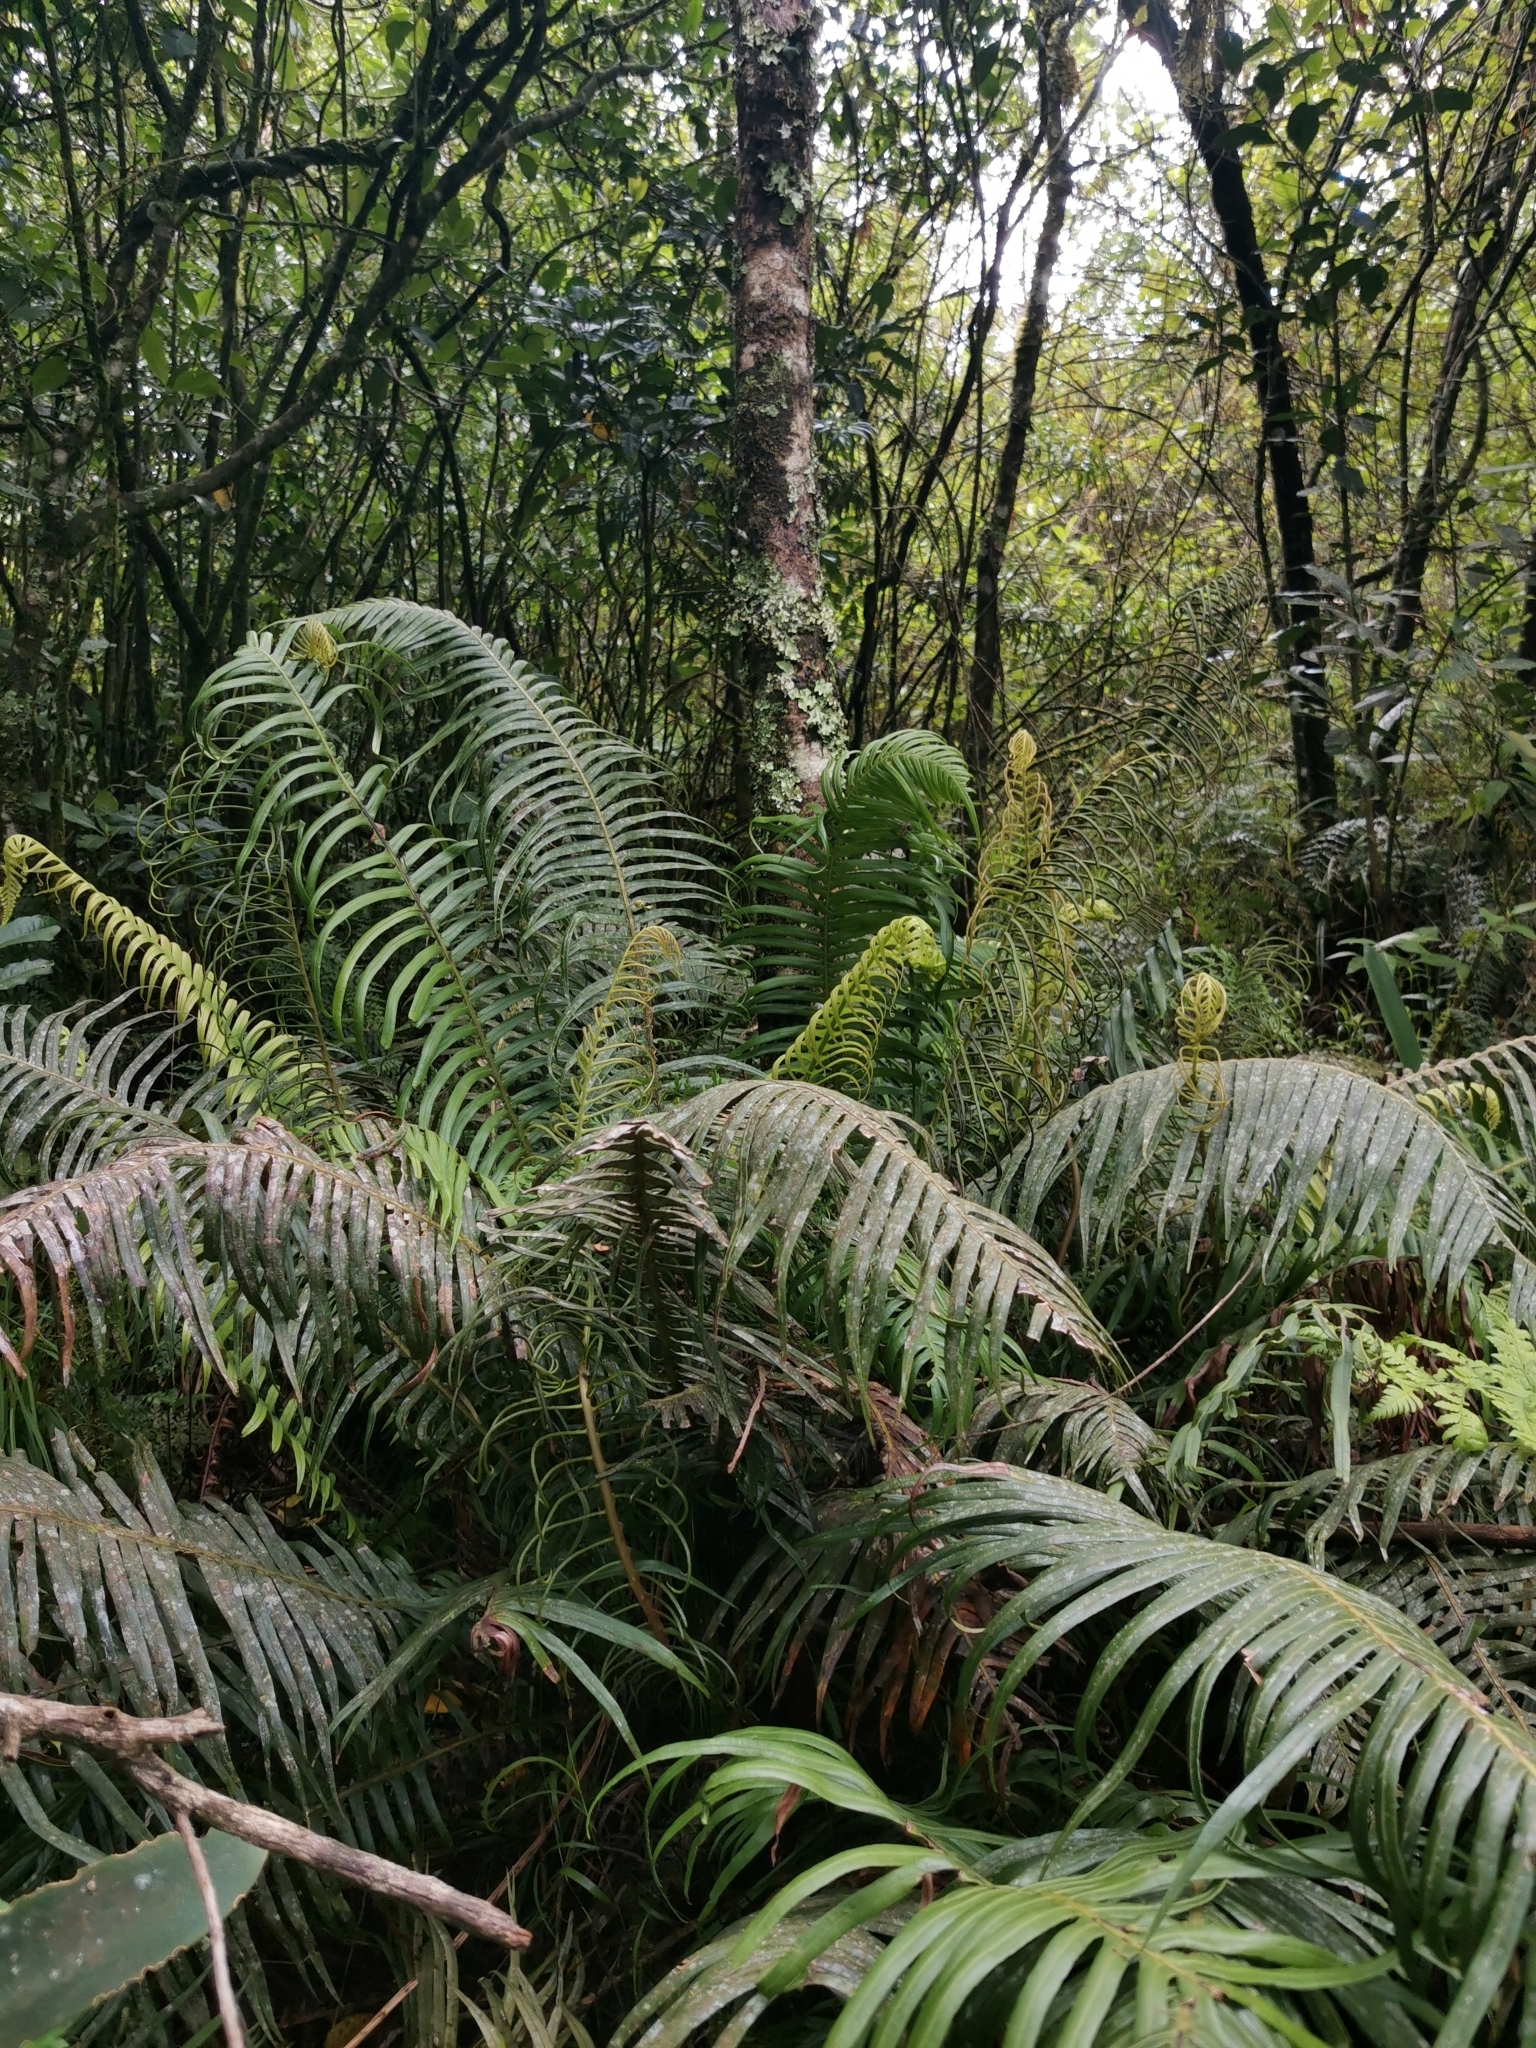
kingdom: Plantae
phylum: Tracheophyta
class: Polypodiopsida
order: Polypodiales
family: Blechnaceae
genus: Lomaridium
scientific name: Lomaridium attenuatum
